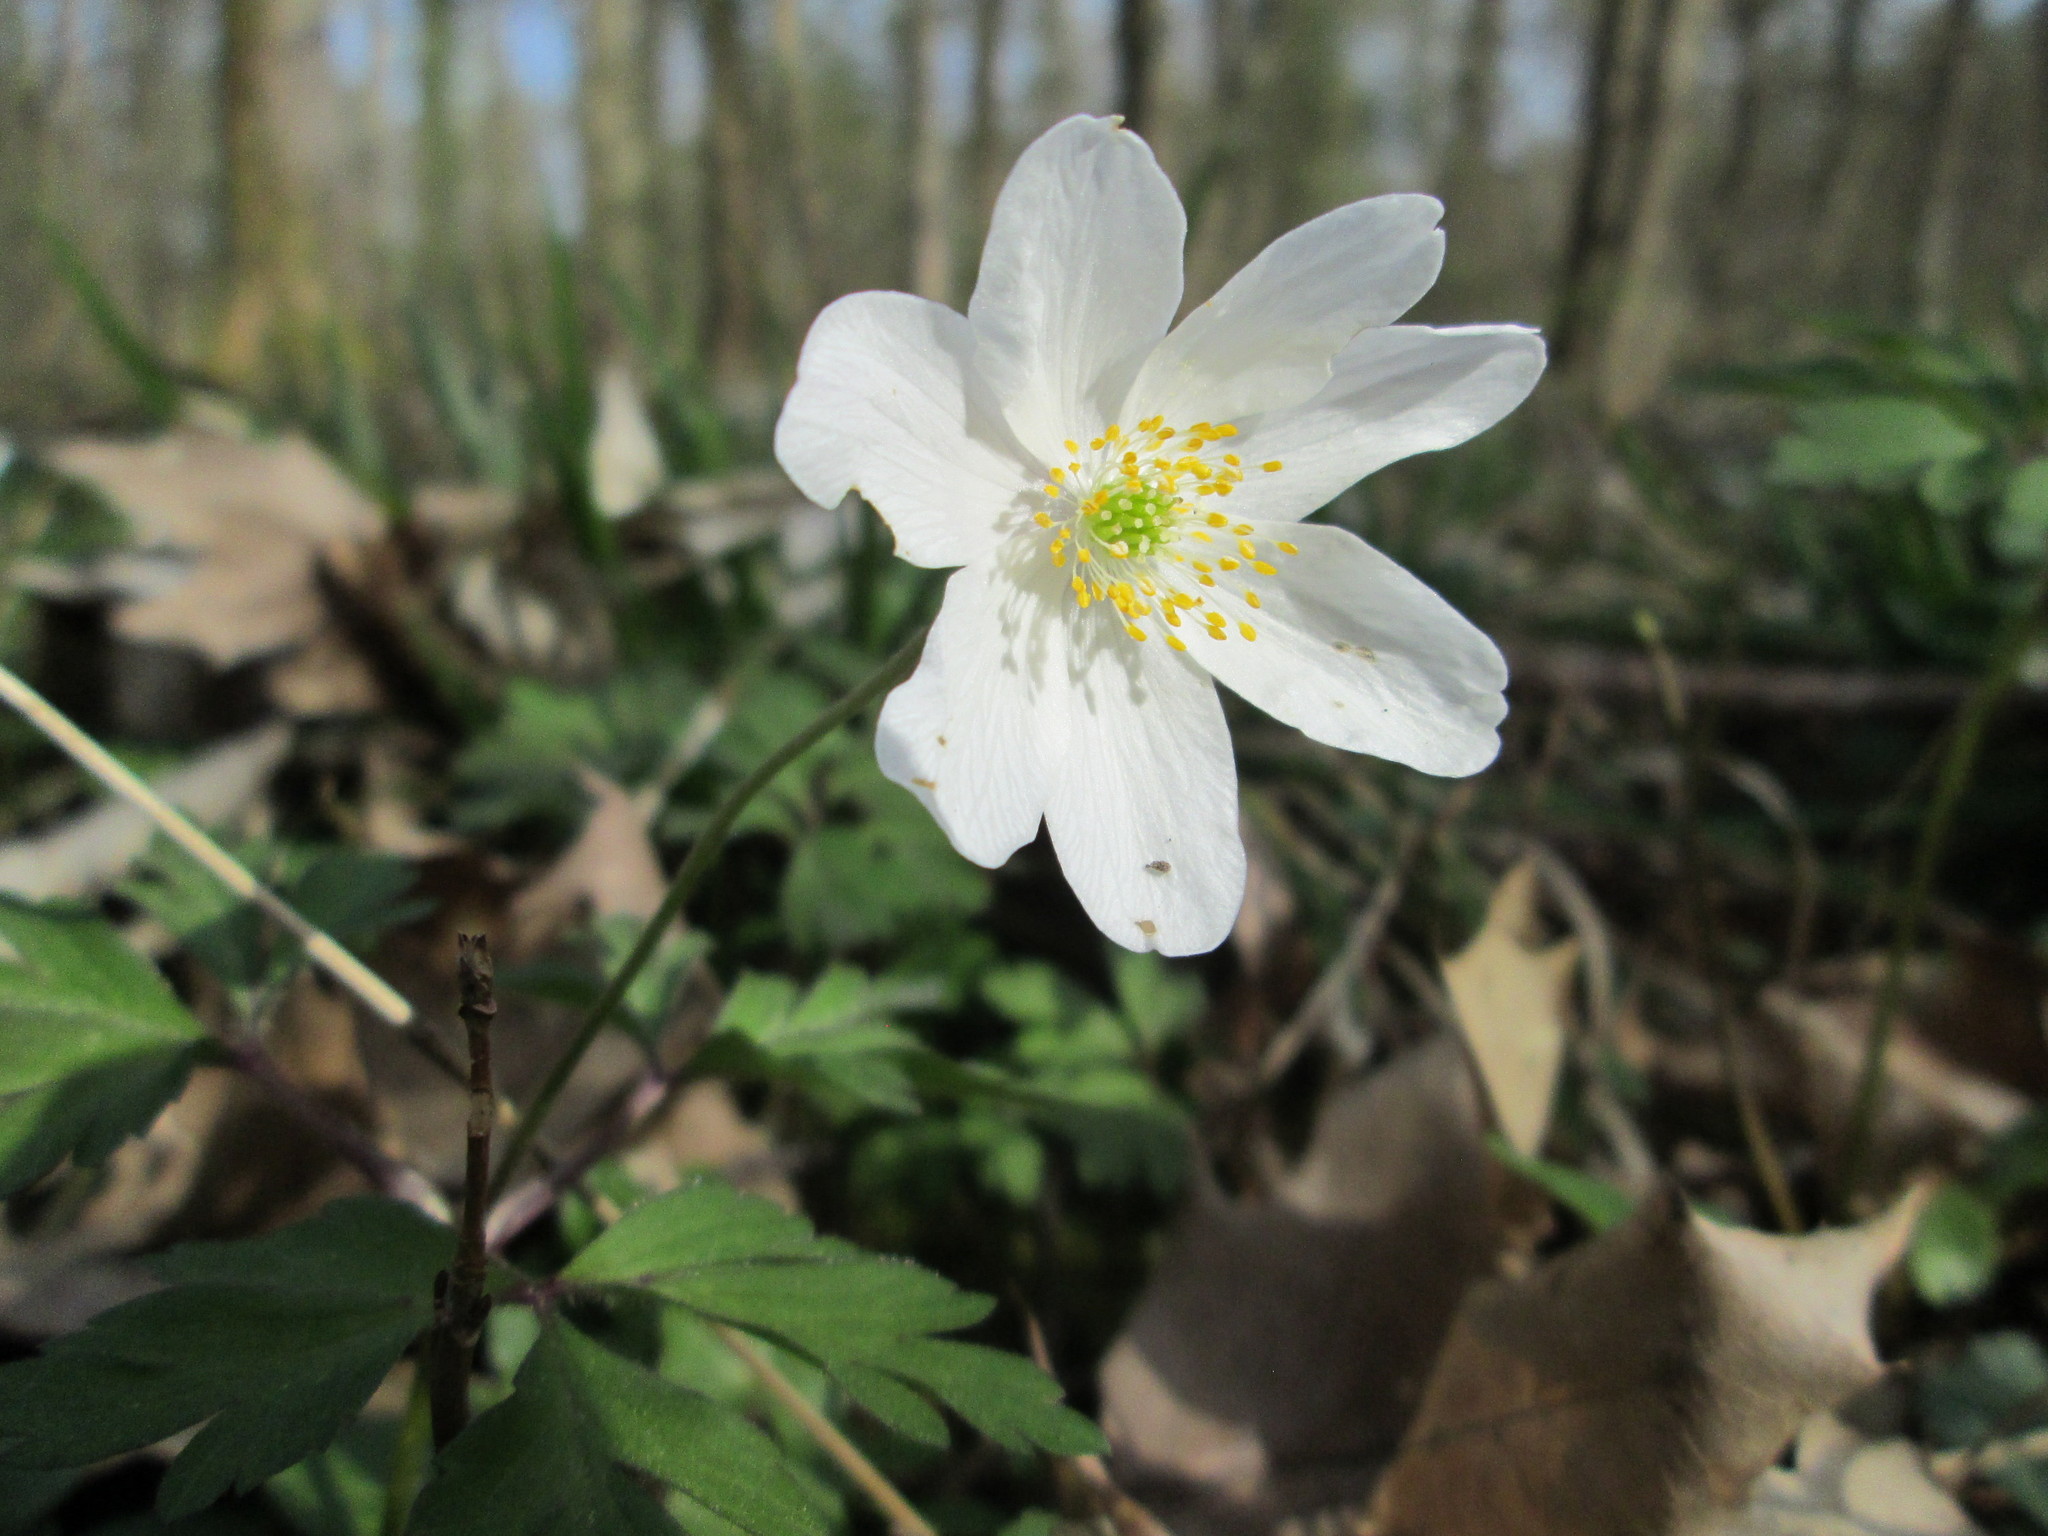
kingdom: Plantae
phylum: Tracheophyta
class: Magnoliopsida
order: Ranunculales
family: Ranunculaceae
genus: Anemone
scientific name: Anemone nemorosa
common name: Wood anemone
